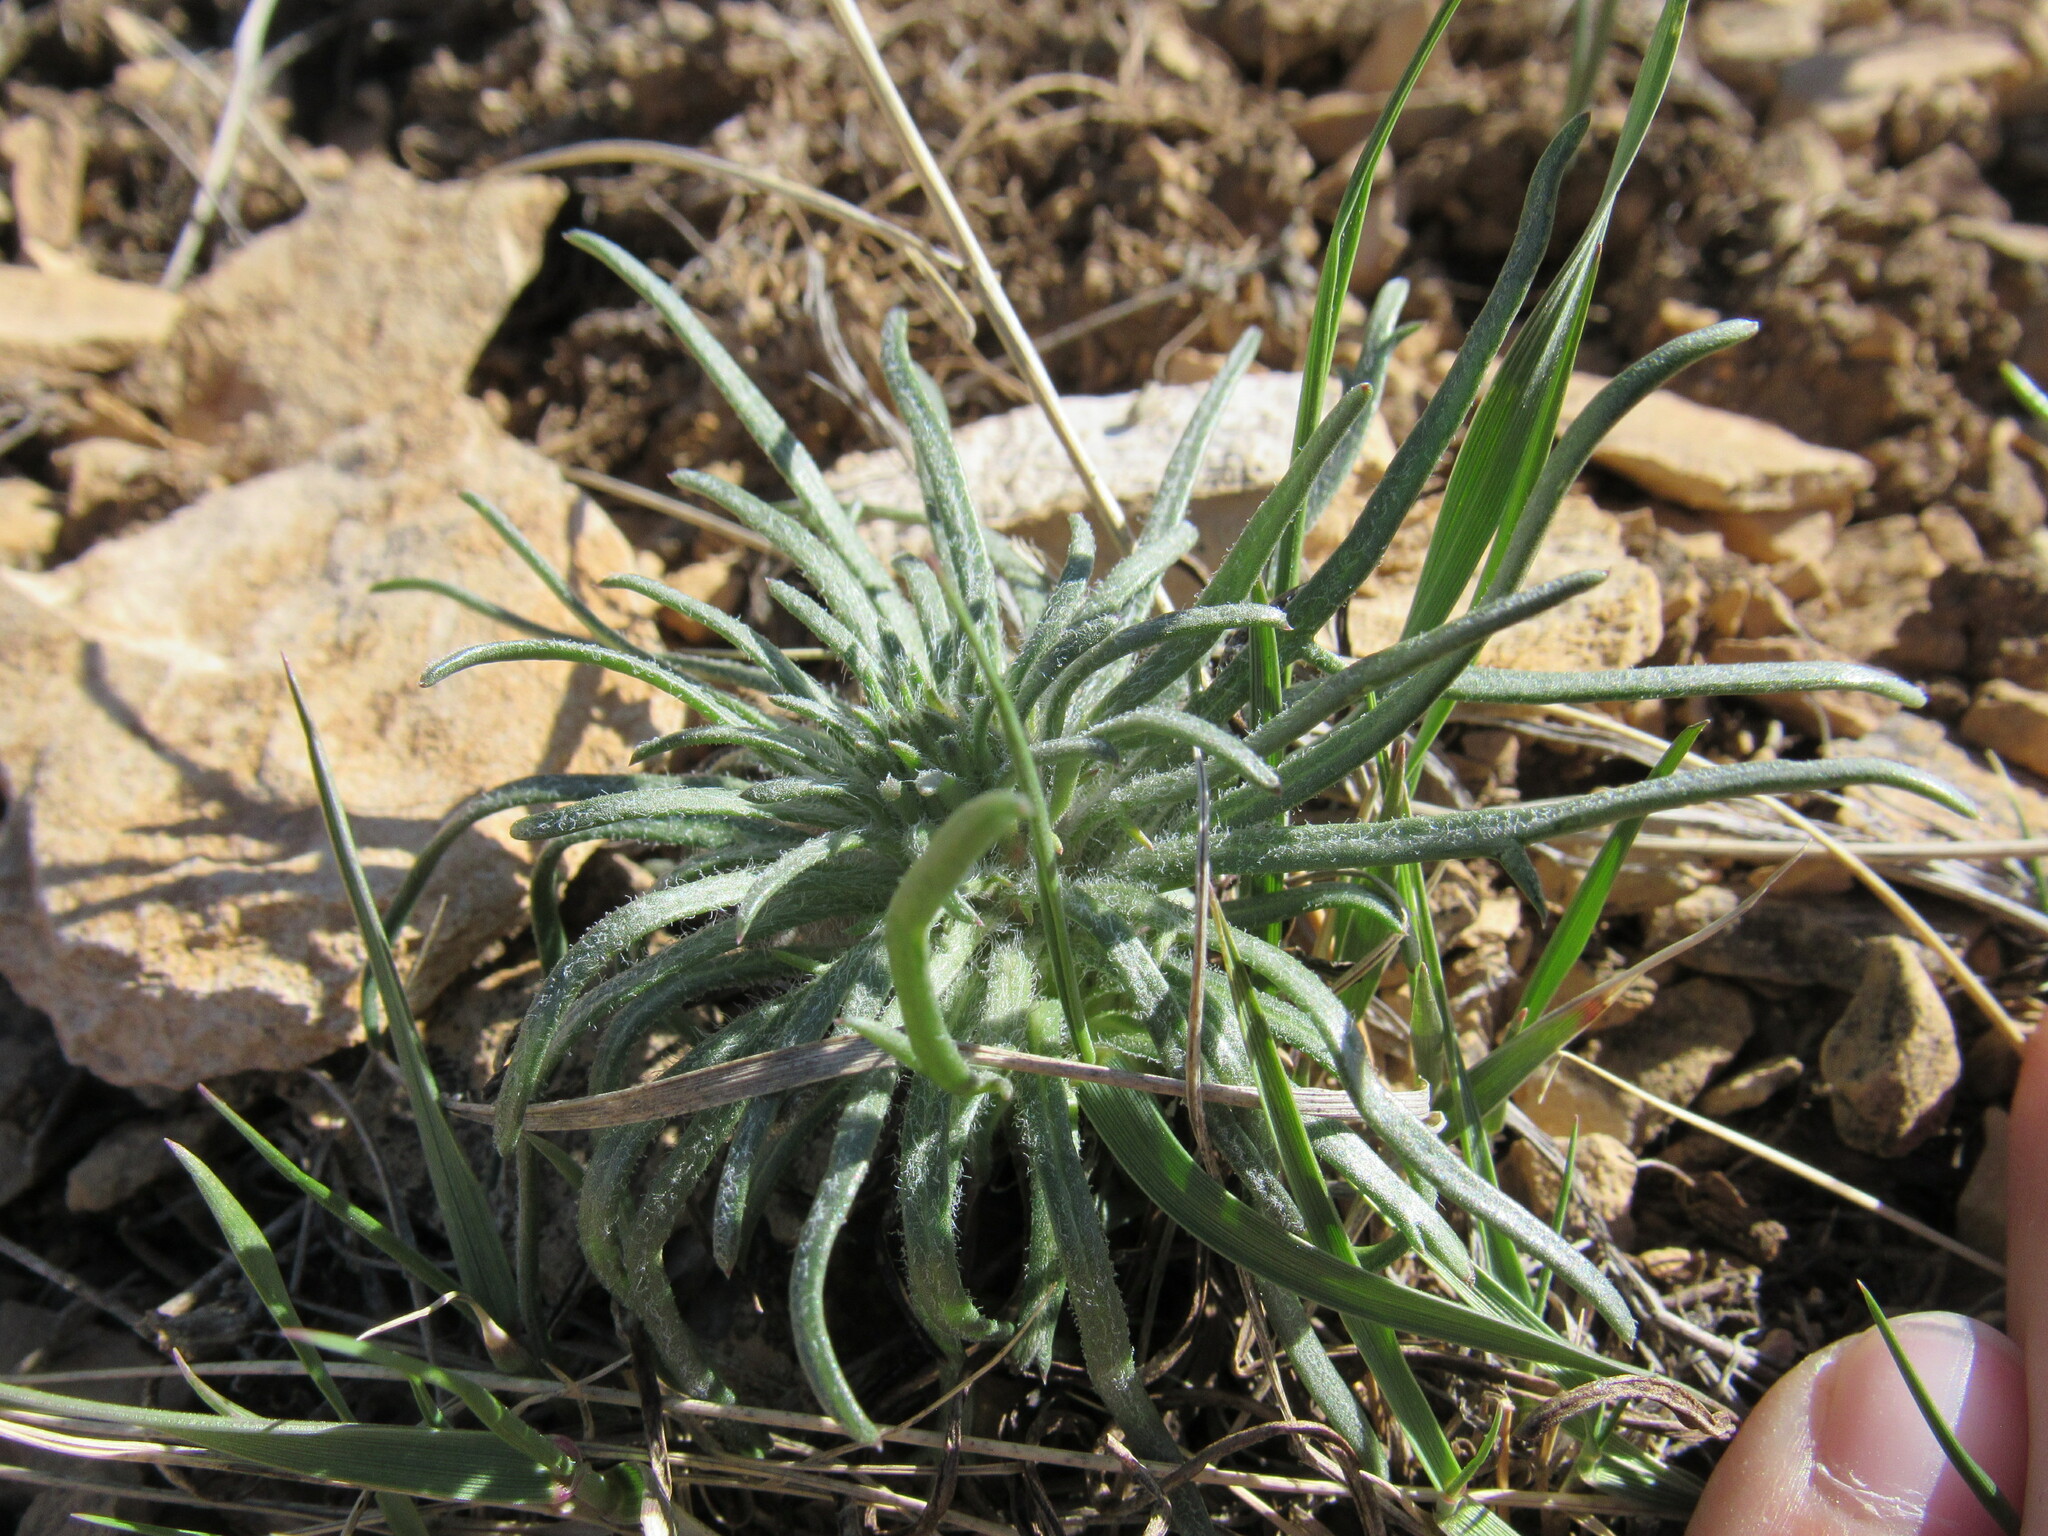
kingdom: Plantae
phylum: Tracheophyta
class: Magnoliopsida
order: Ericales
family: Polemoniaceae
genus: Ipomopsis
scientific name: Ipomopsis spicata
